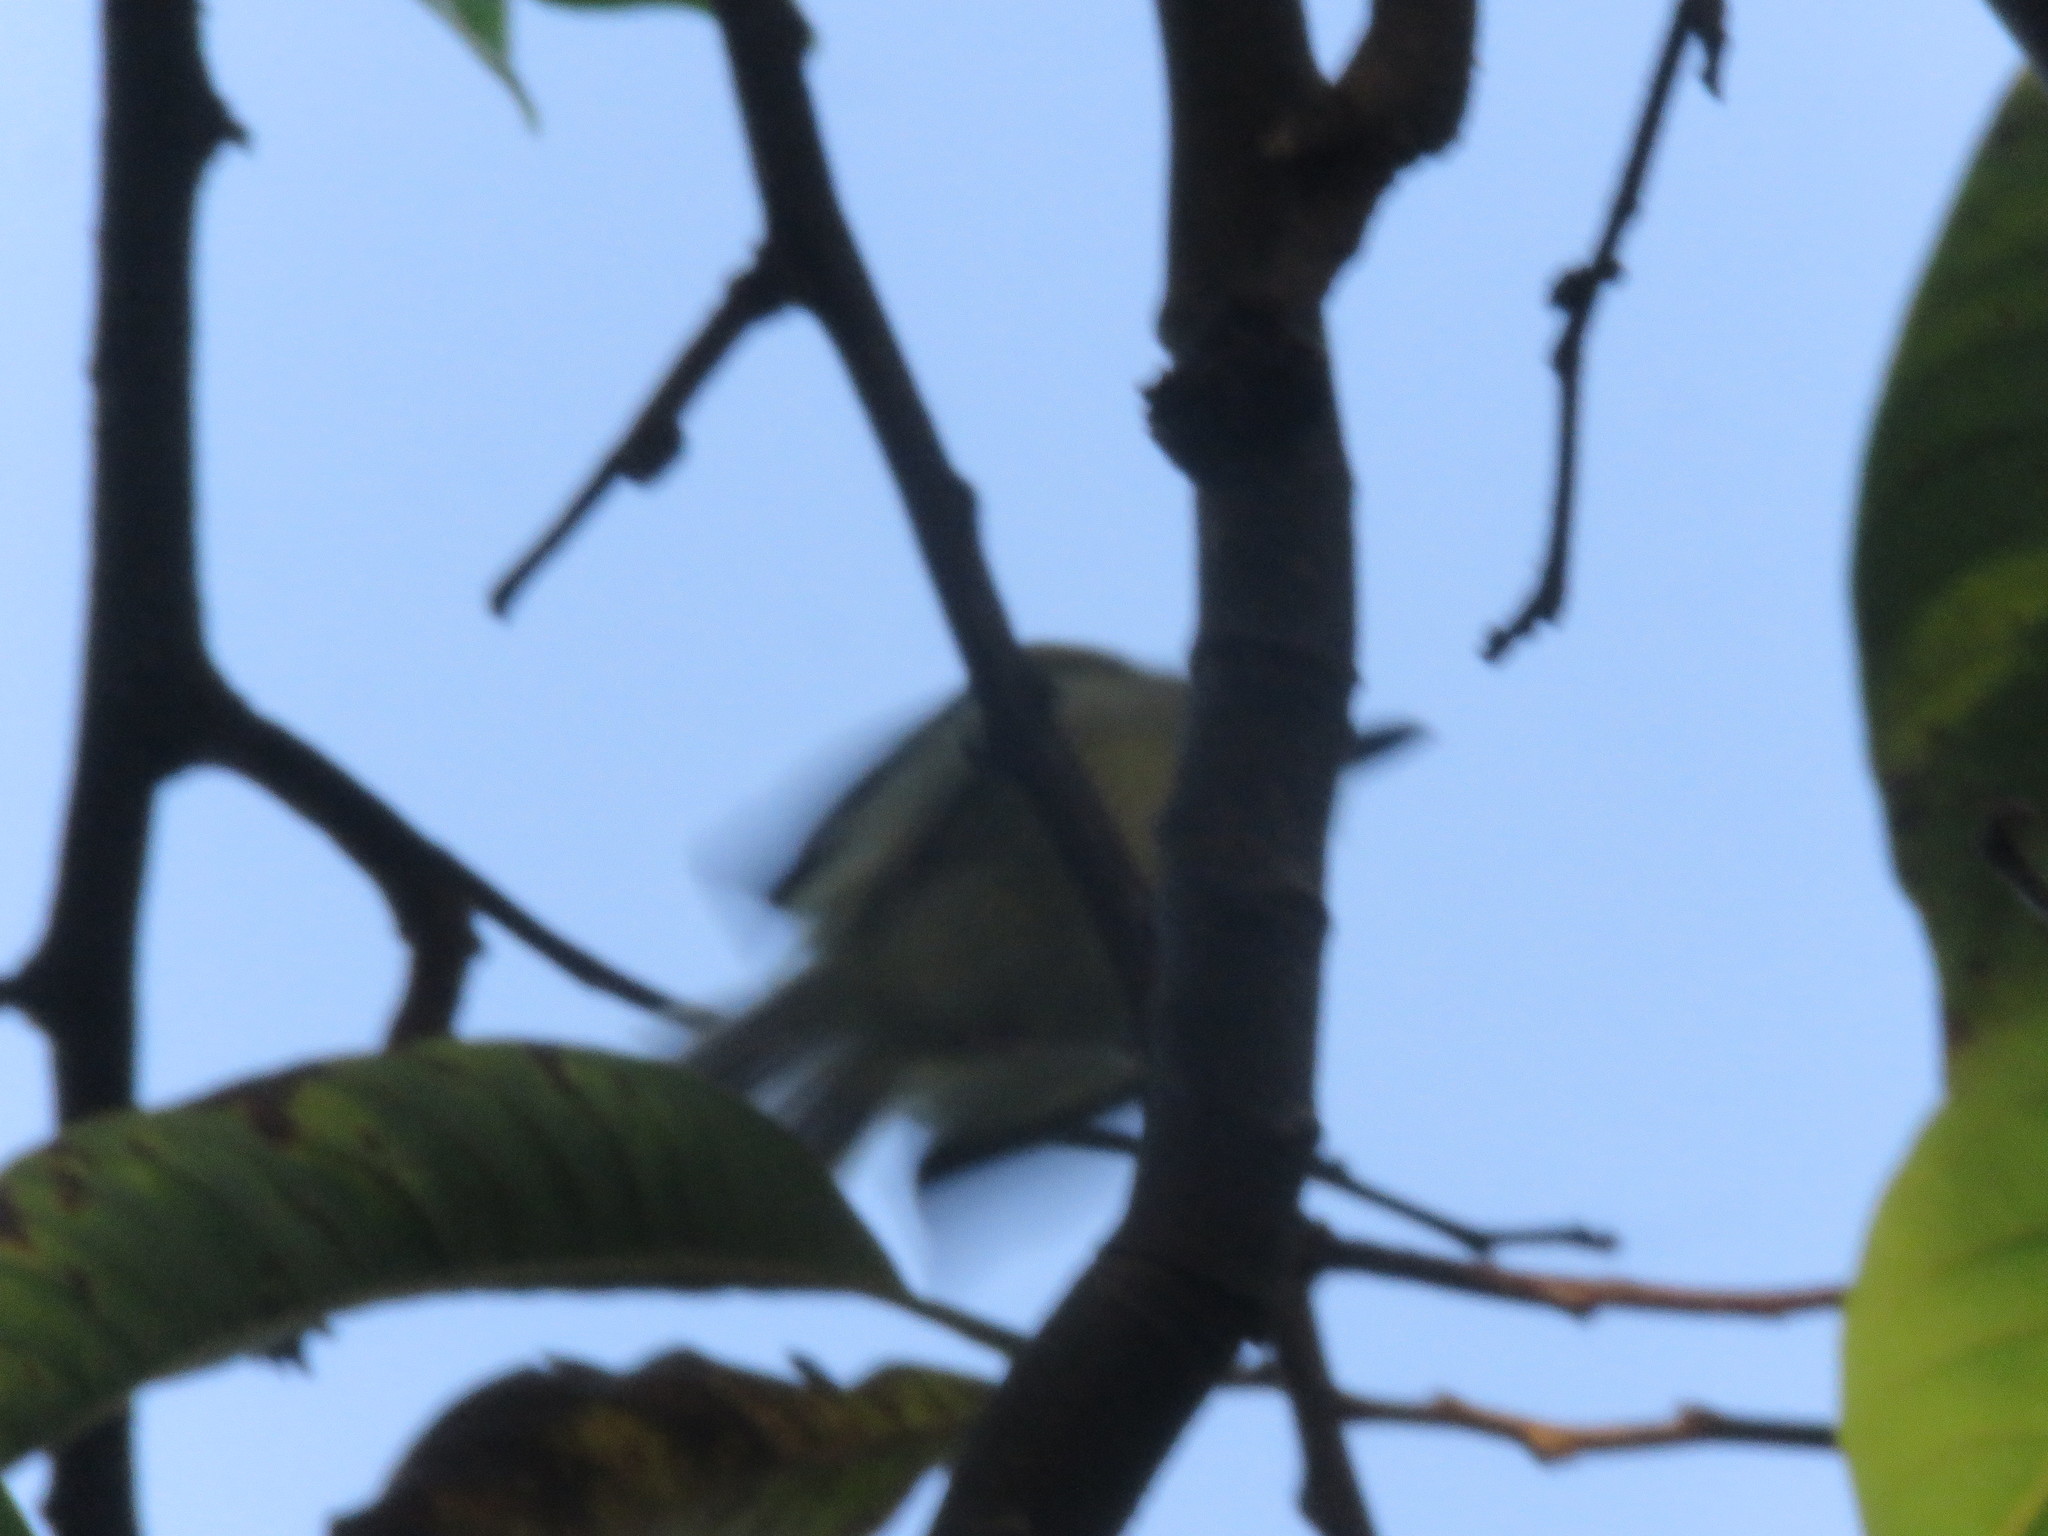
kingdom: Animalia
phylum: Chordata
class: Aves
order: Passeriformes
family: Tyrannidae
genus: Todirostrum
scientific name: Todirostrum maculatum
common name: Spotted tody-flycatcher
